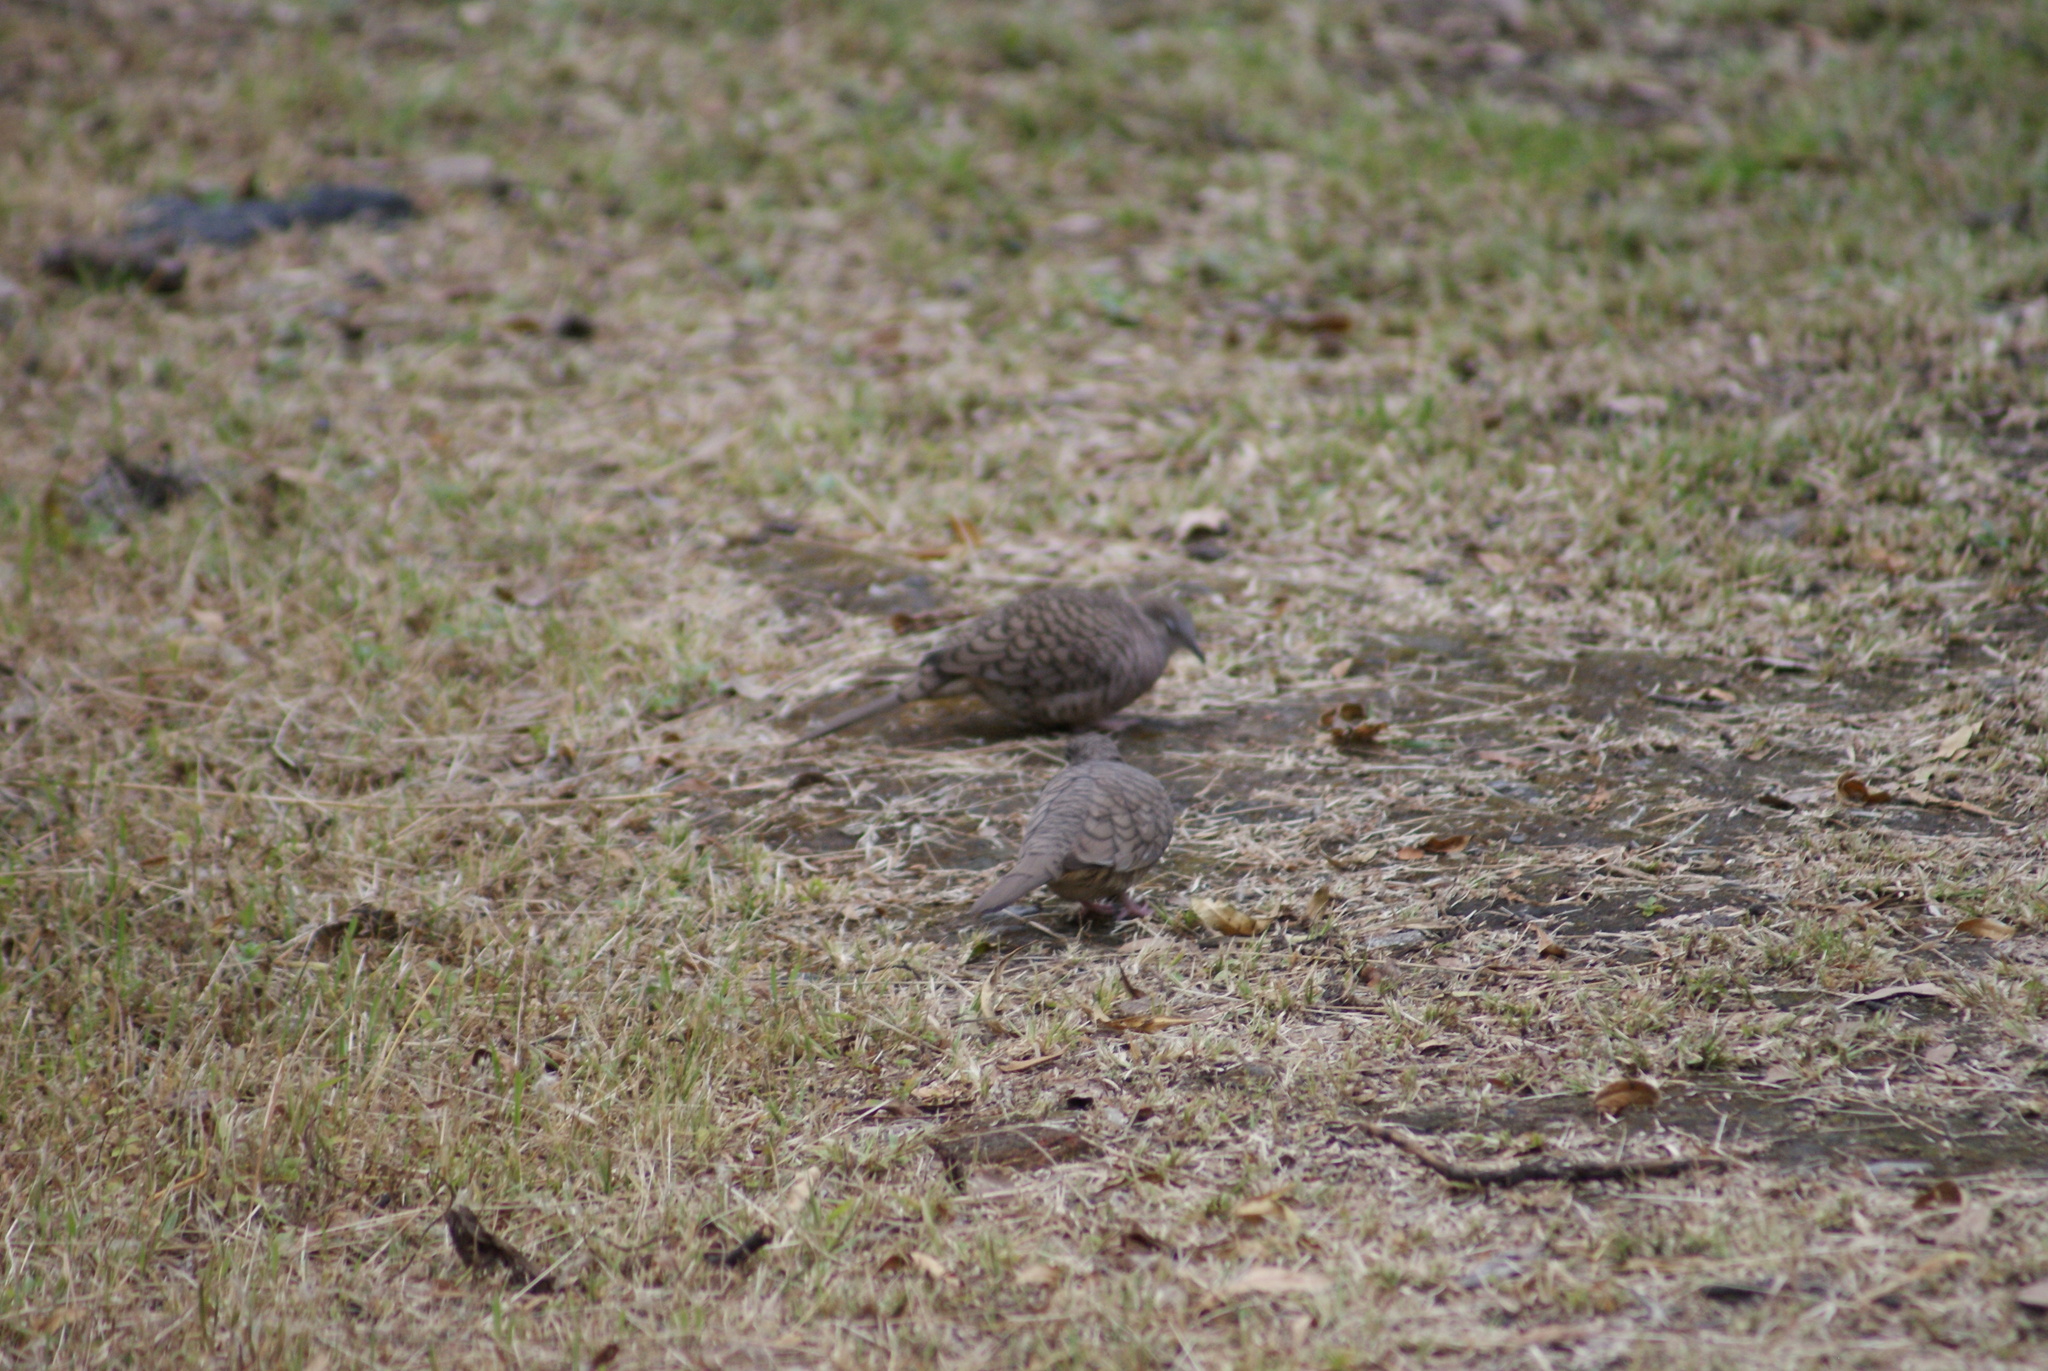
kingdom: Animalia
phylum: Chordata
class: Aves
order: Columbiformes
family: Columbidae
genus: Columbina
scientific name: Columbina inca
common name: Inca dove
